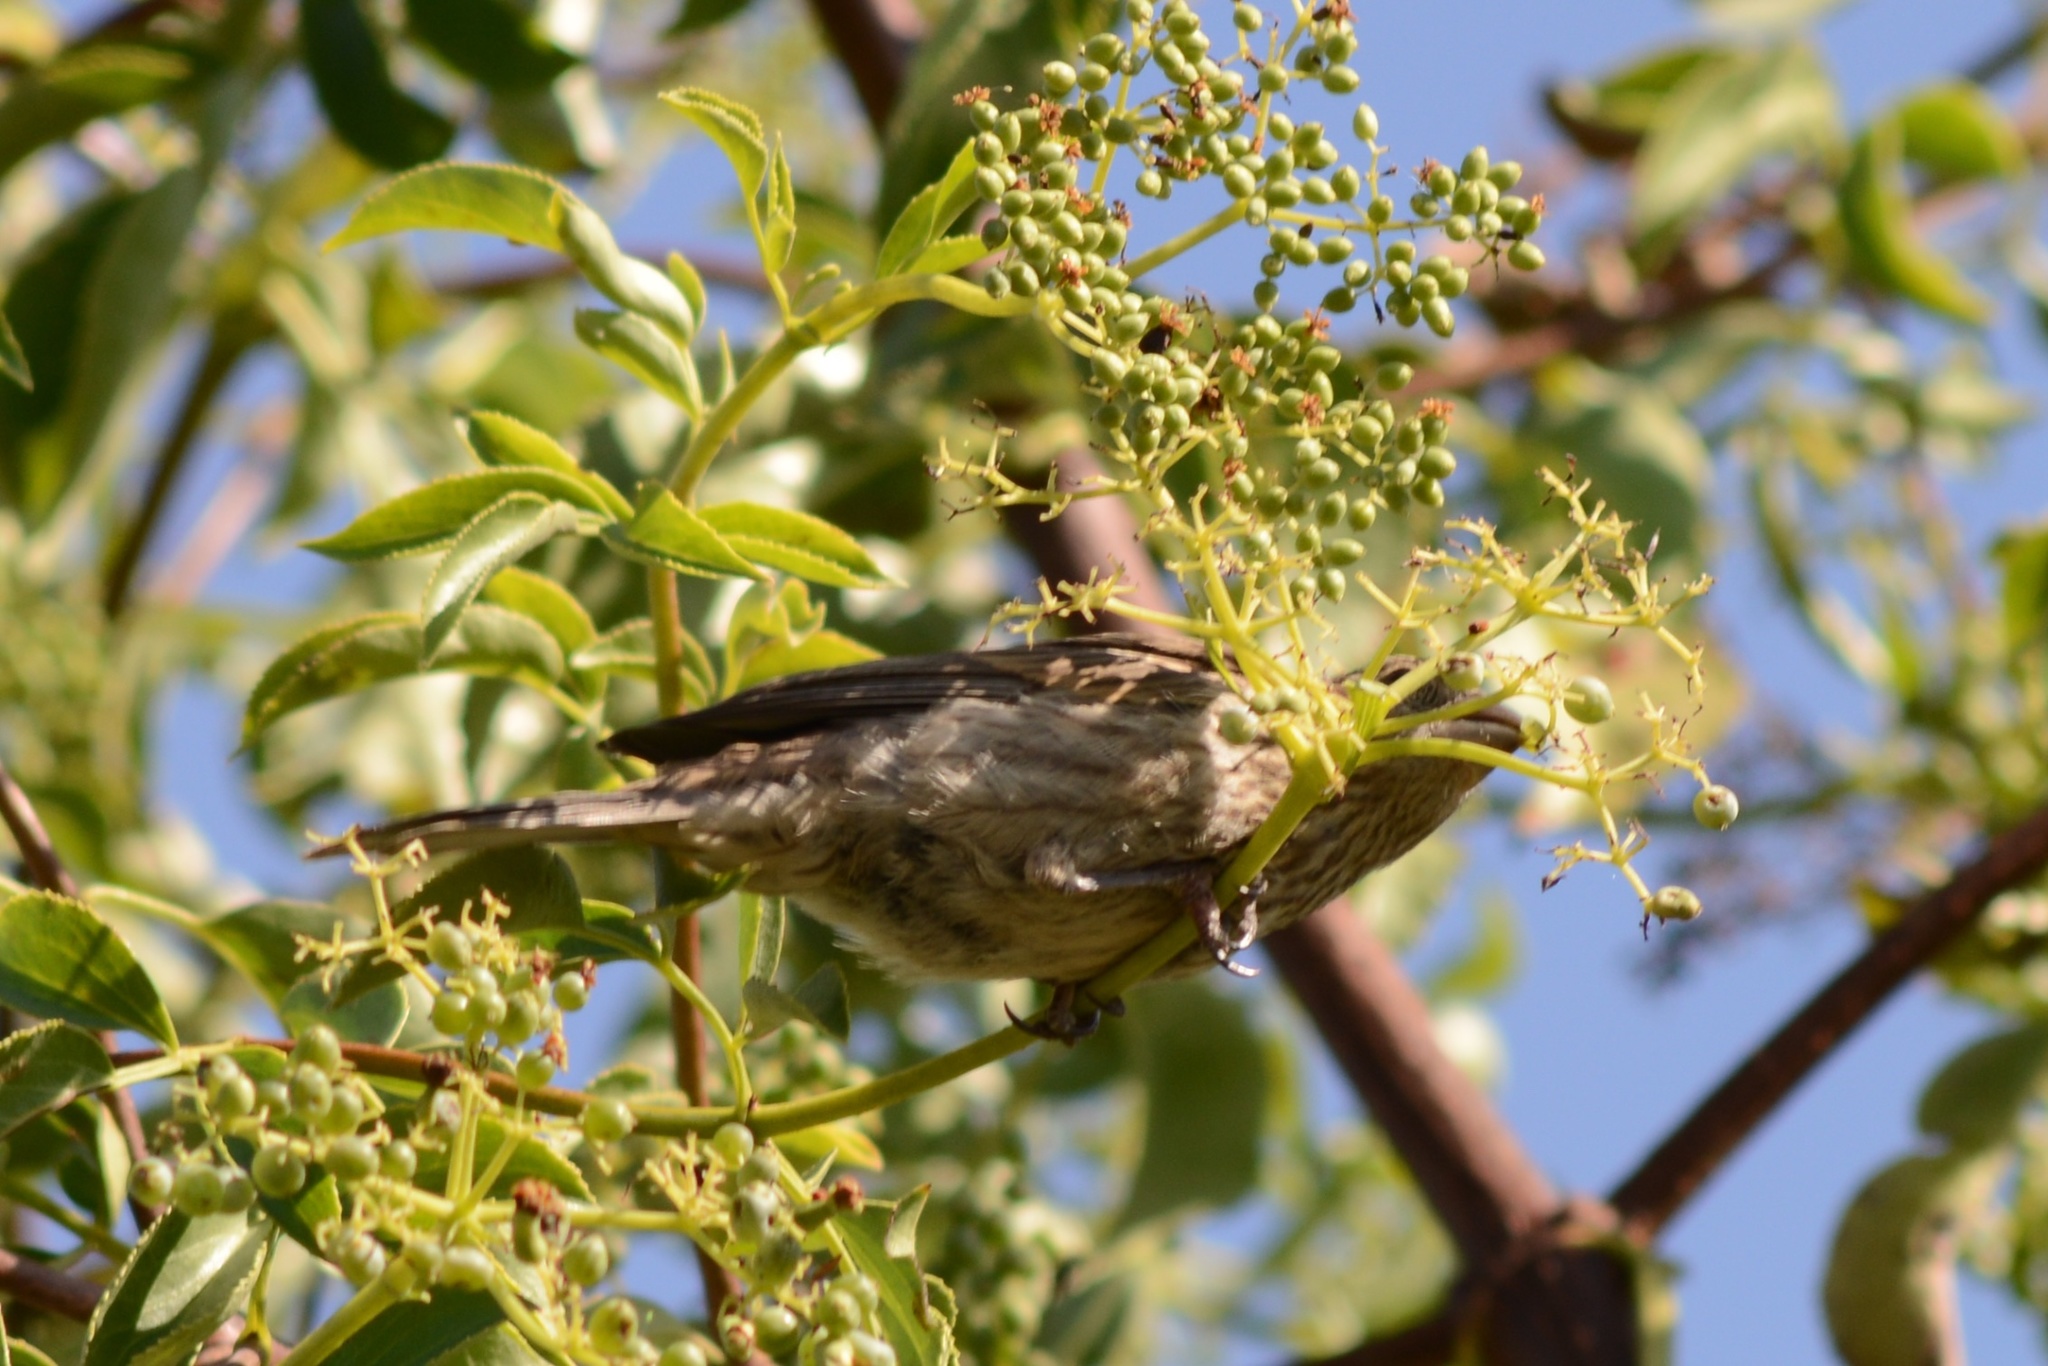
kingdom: Animalia
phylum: Chordata
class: Aves
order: Passeriformes
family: Fringillidae
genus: Haemorhous
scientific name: Haemorhous mexicanus
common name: House finch
